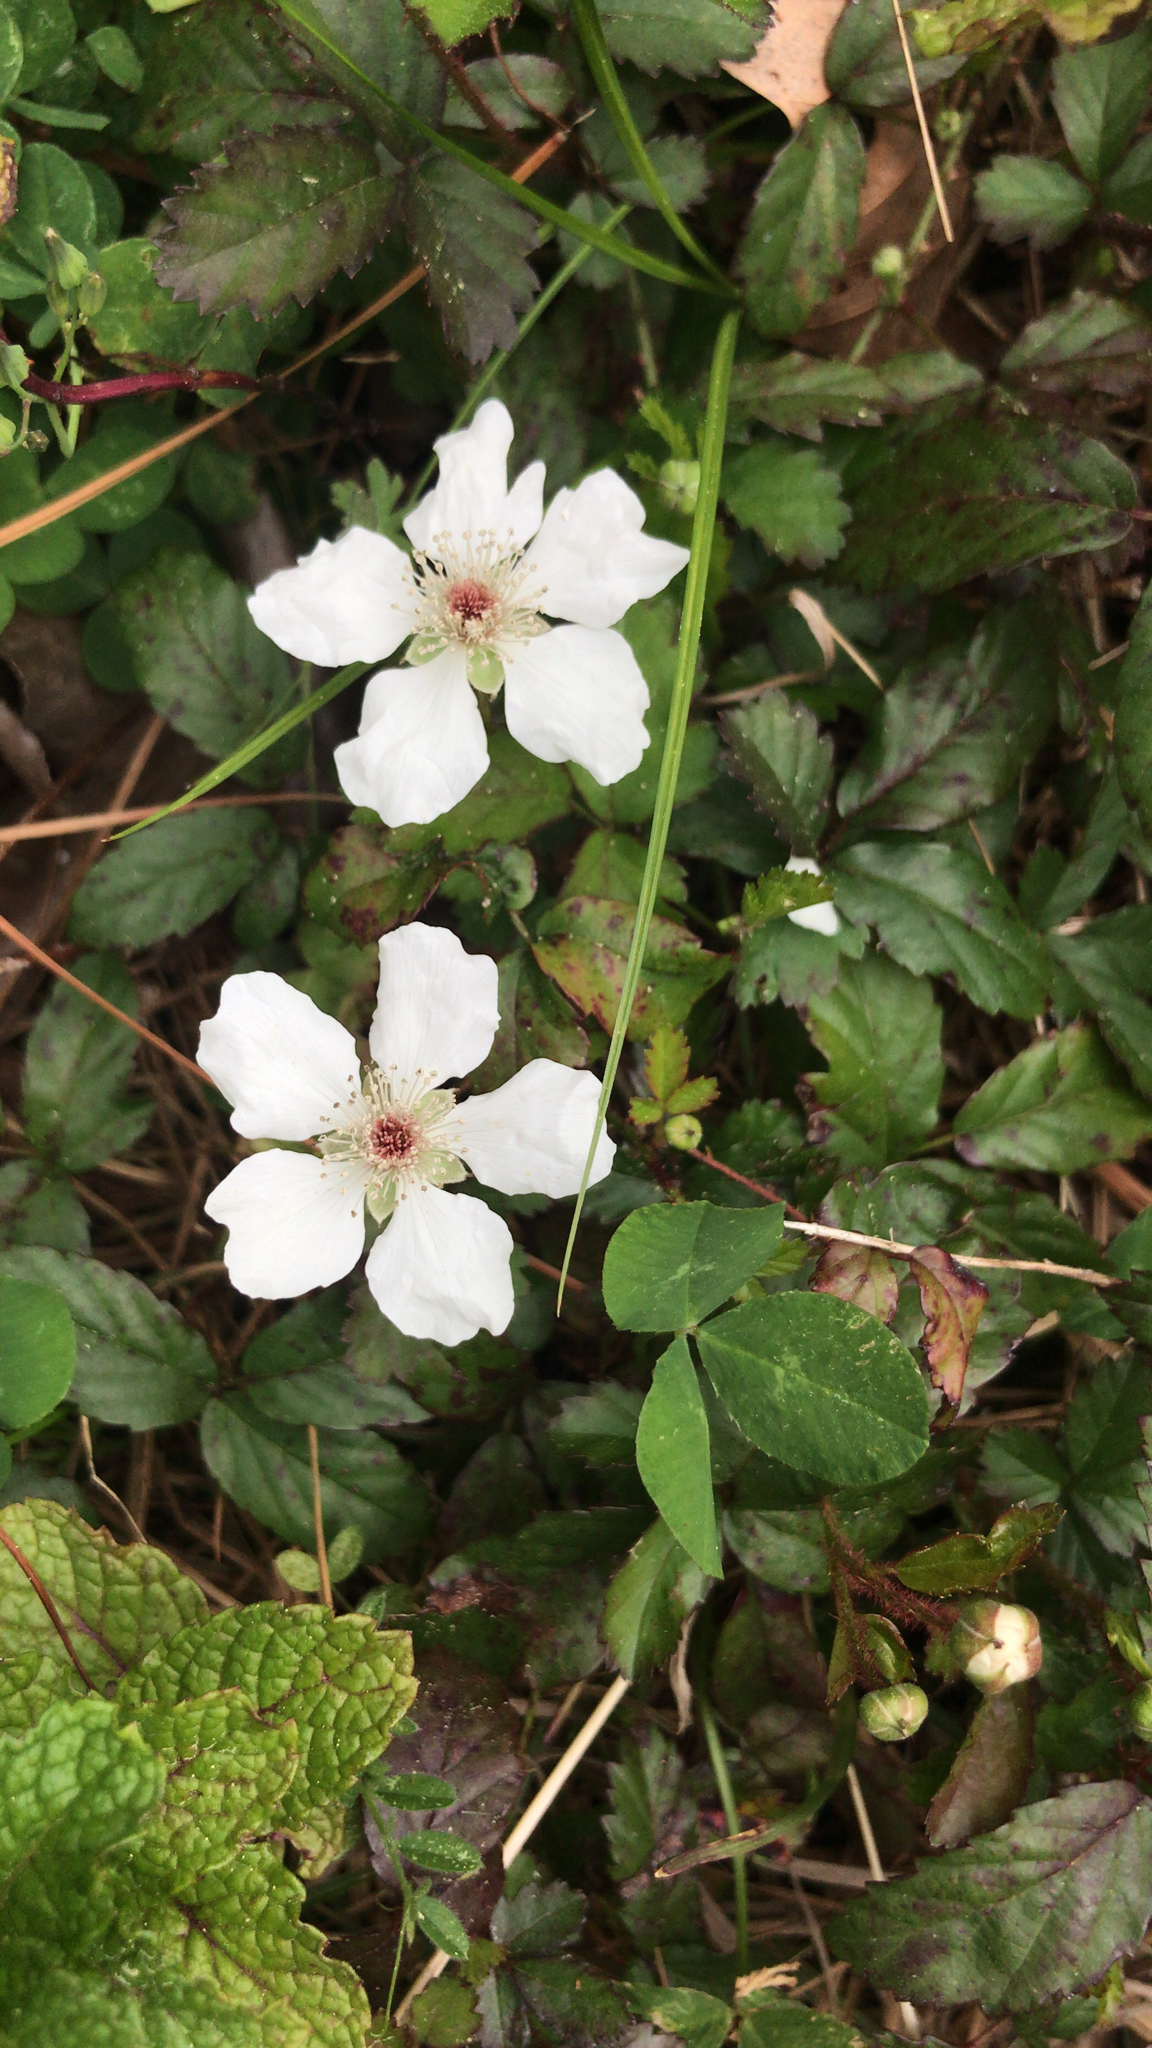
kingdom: Plantae
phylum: Tracheophyta
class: Magnoliopsida
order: Rosales
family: Rosaceae
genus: Rubus
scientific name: Rubus trivialis
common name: Southern dewberry
